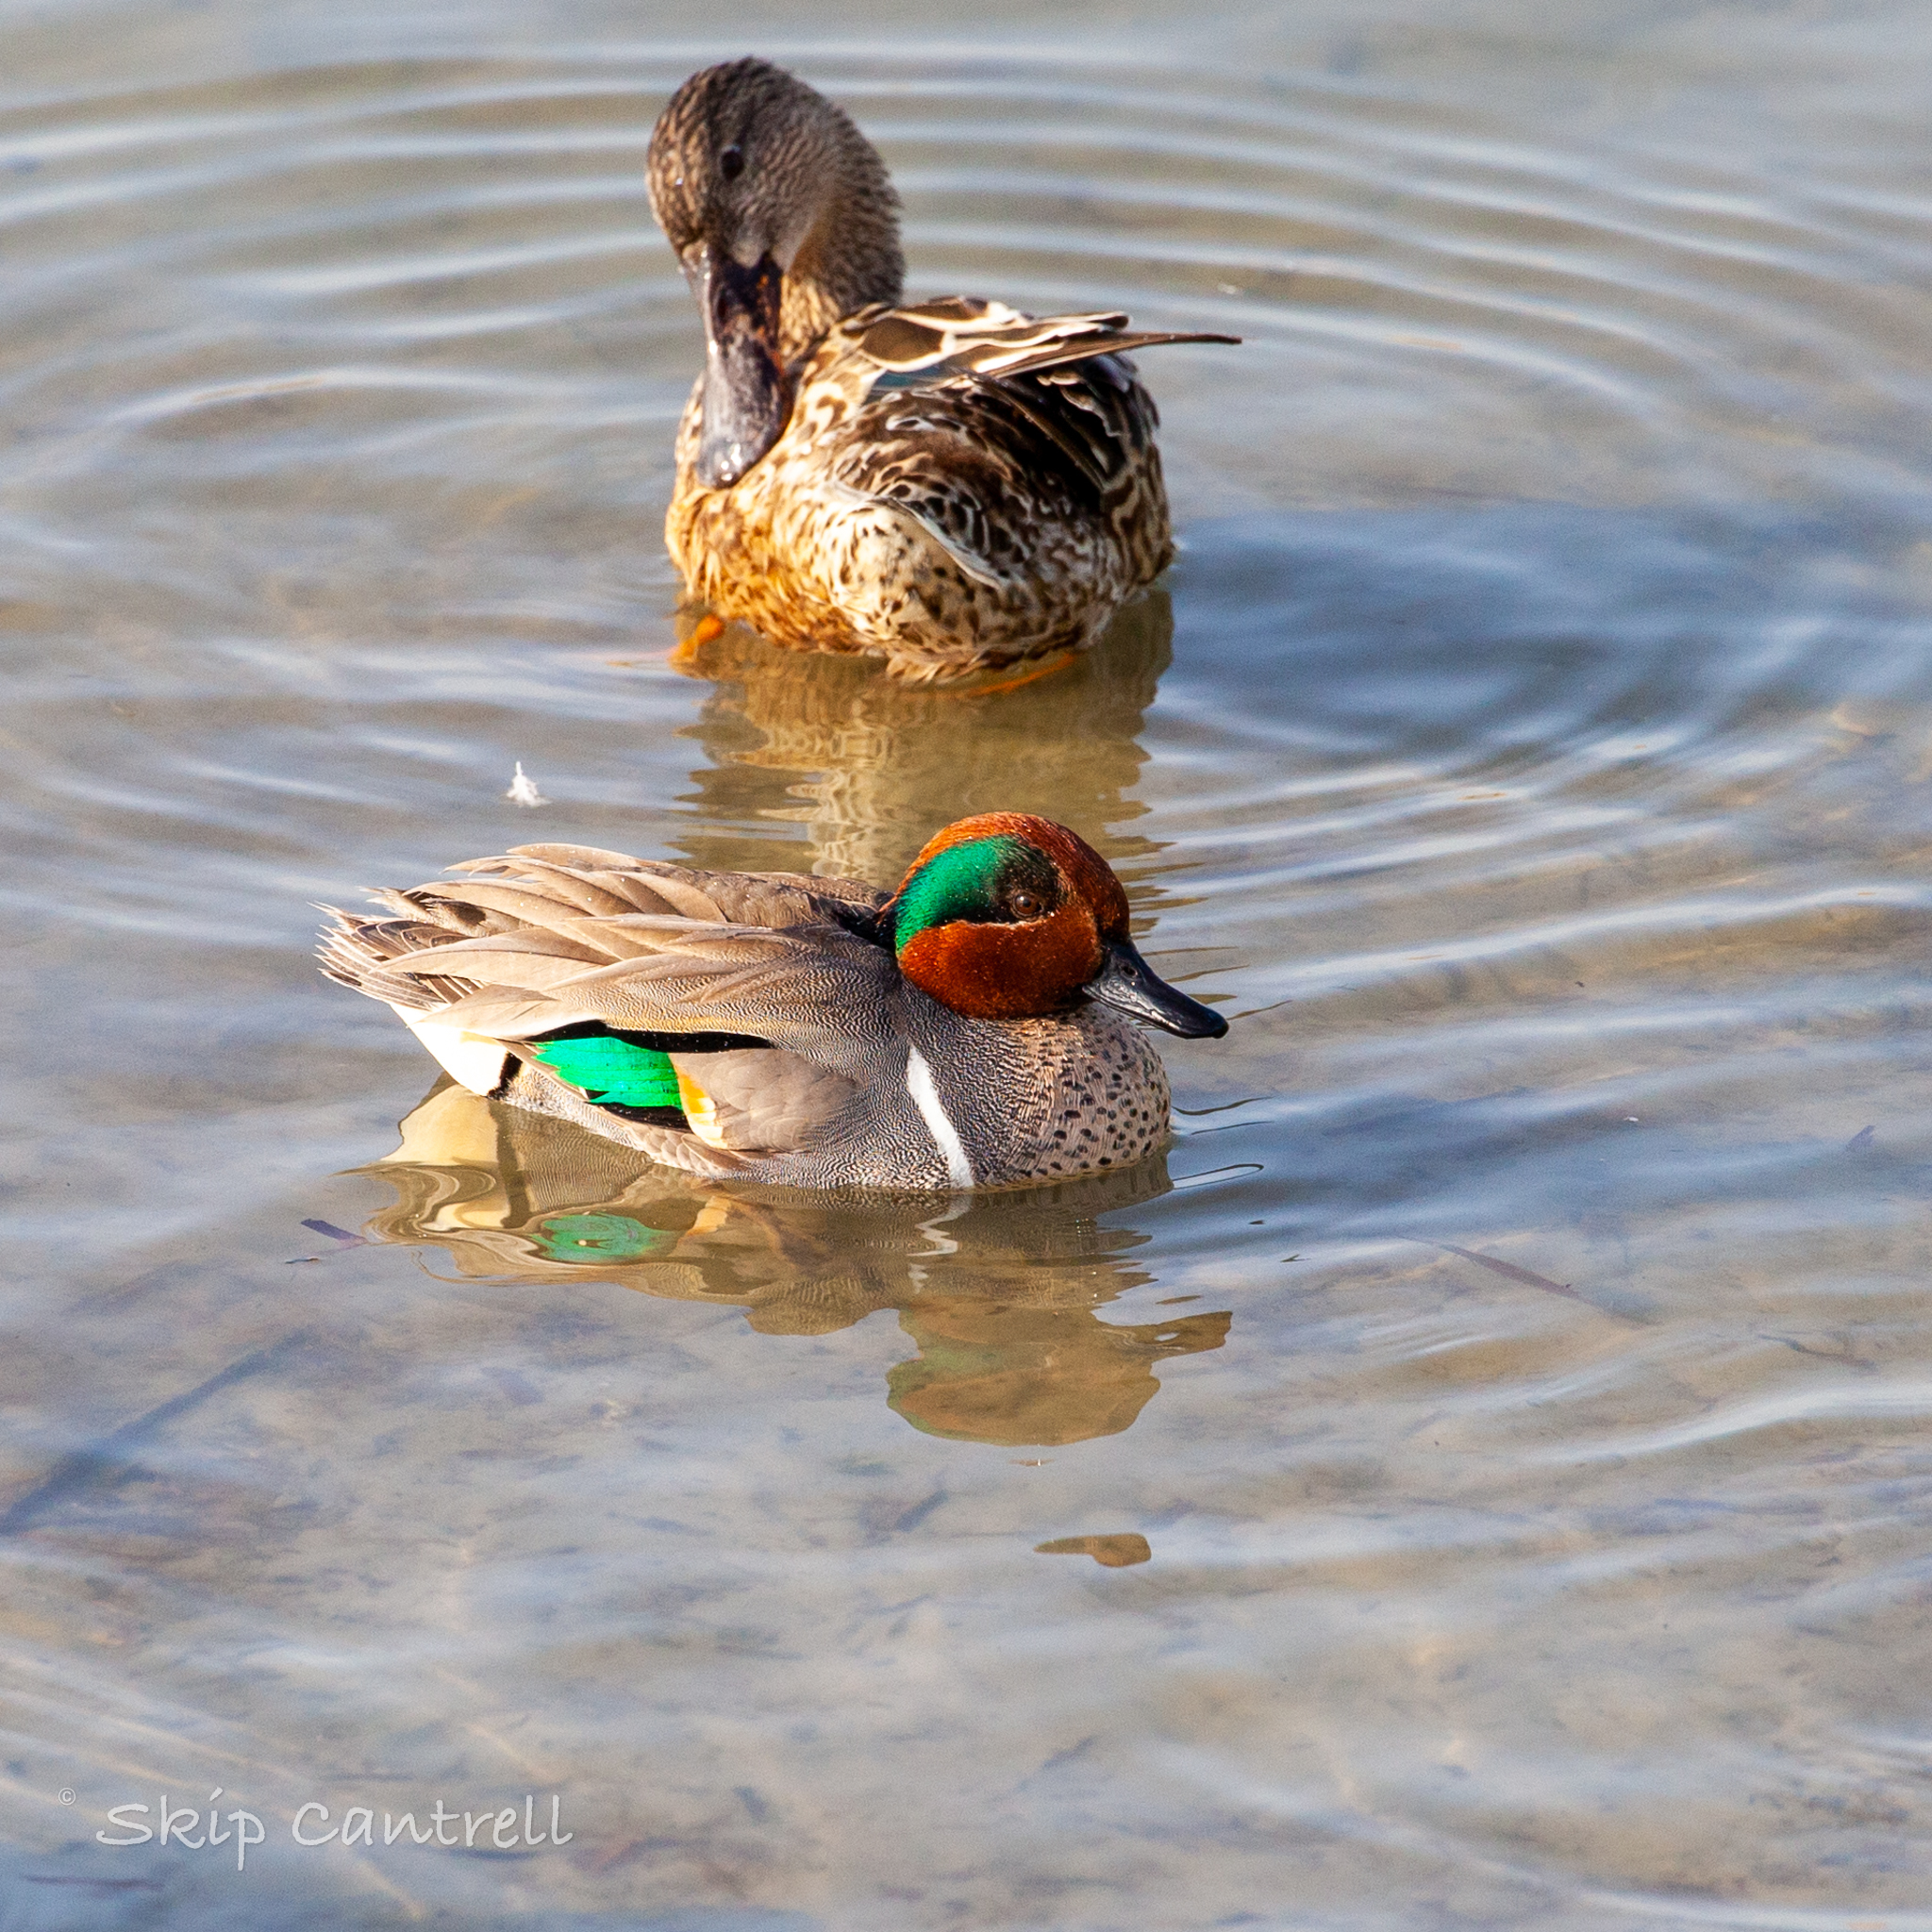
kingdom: Animalia
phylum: Chordata
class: Aves
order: Anseriformes
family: Anatidae
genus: Anas
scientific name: Anas carolinensis
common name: Green-winged teal
